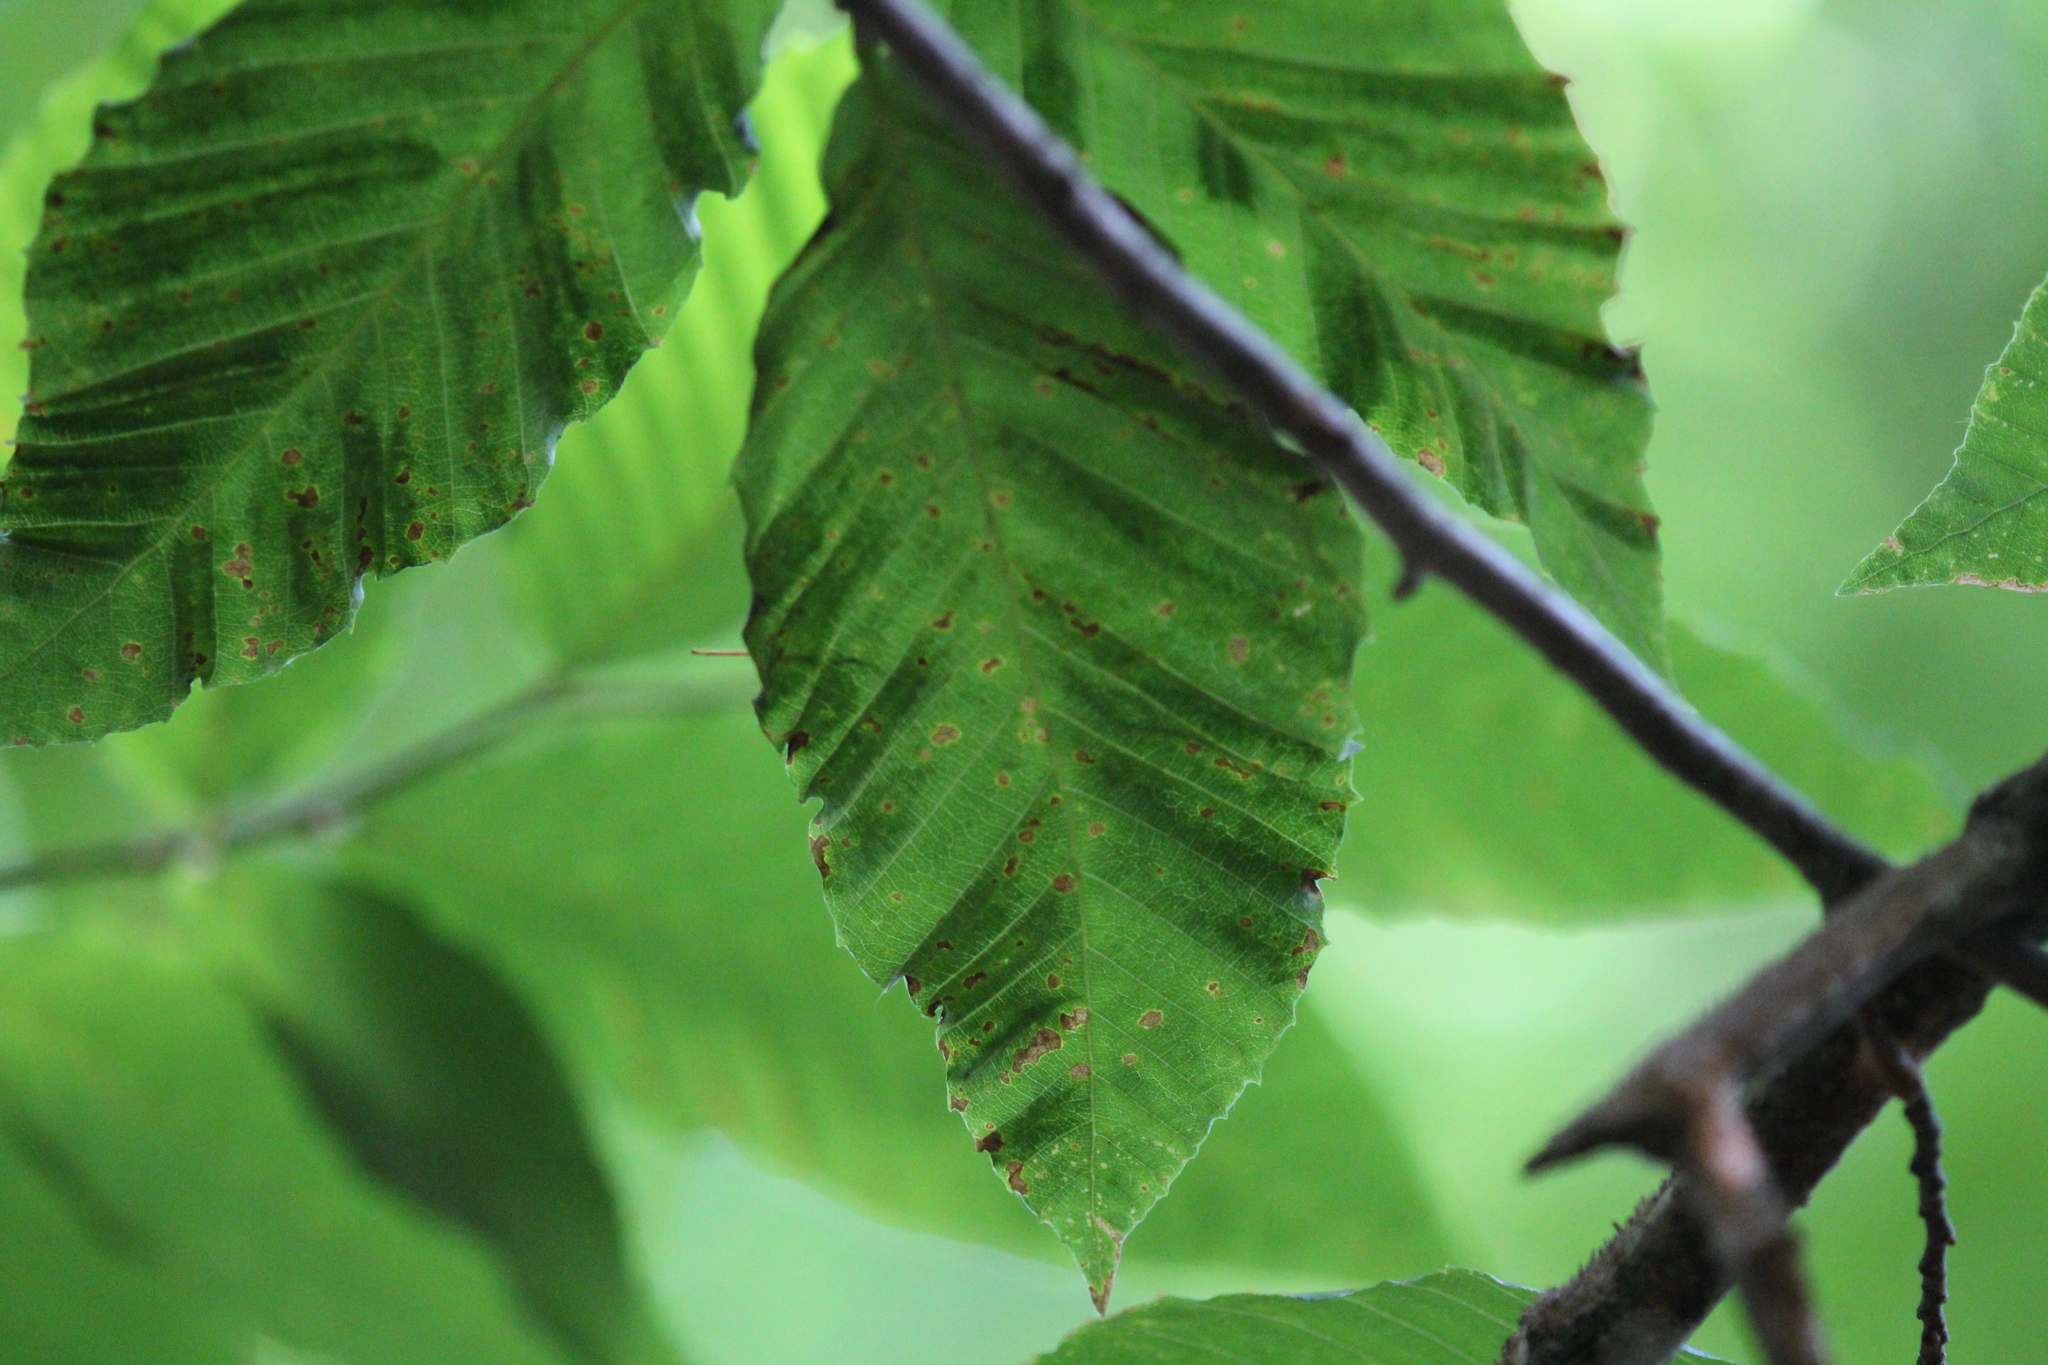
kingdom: Animalia
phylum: Nematoda
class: Chromadorea
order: Rhabditida
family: Anguinidae
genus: Litylenchus
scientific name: Litylenchus crenatae
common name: Beech leaf disease
